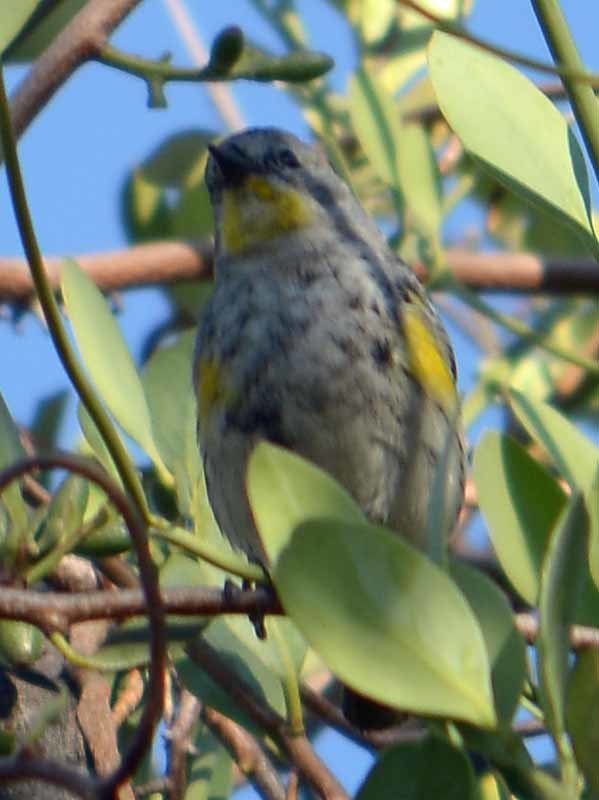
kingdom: Animalia
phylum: Chordata
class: Aves
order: Passeriformes
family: Parulidae
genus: Setophaga
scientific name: Setophaga coronata
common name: Myrtle warbler
